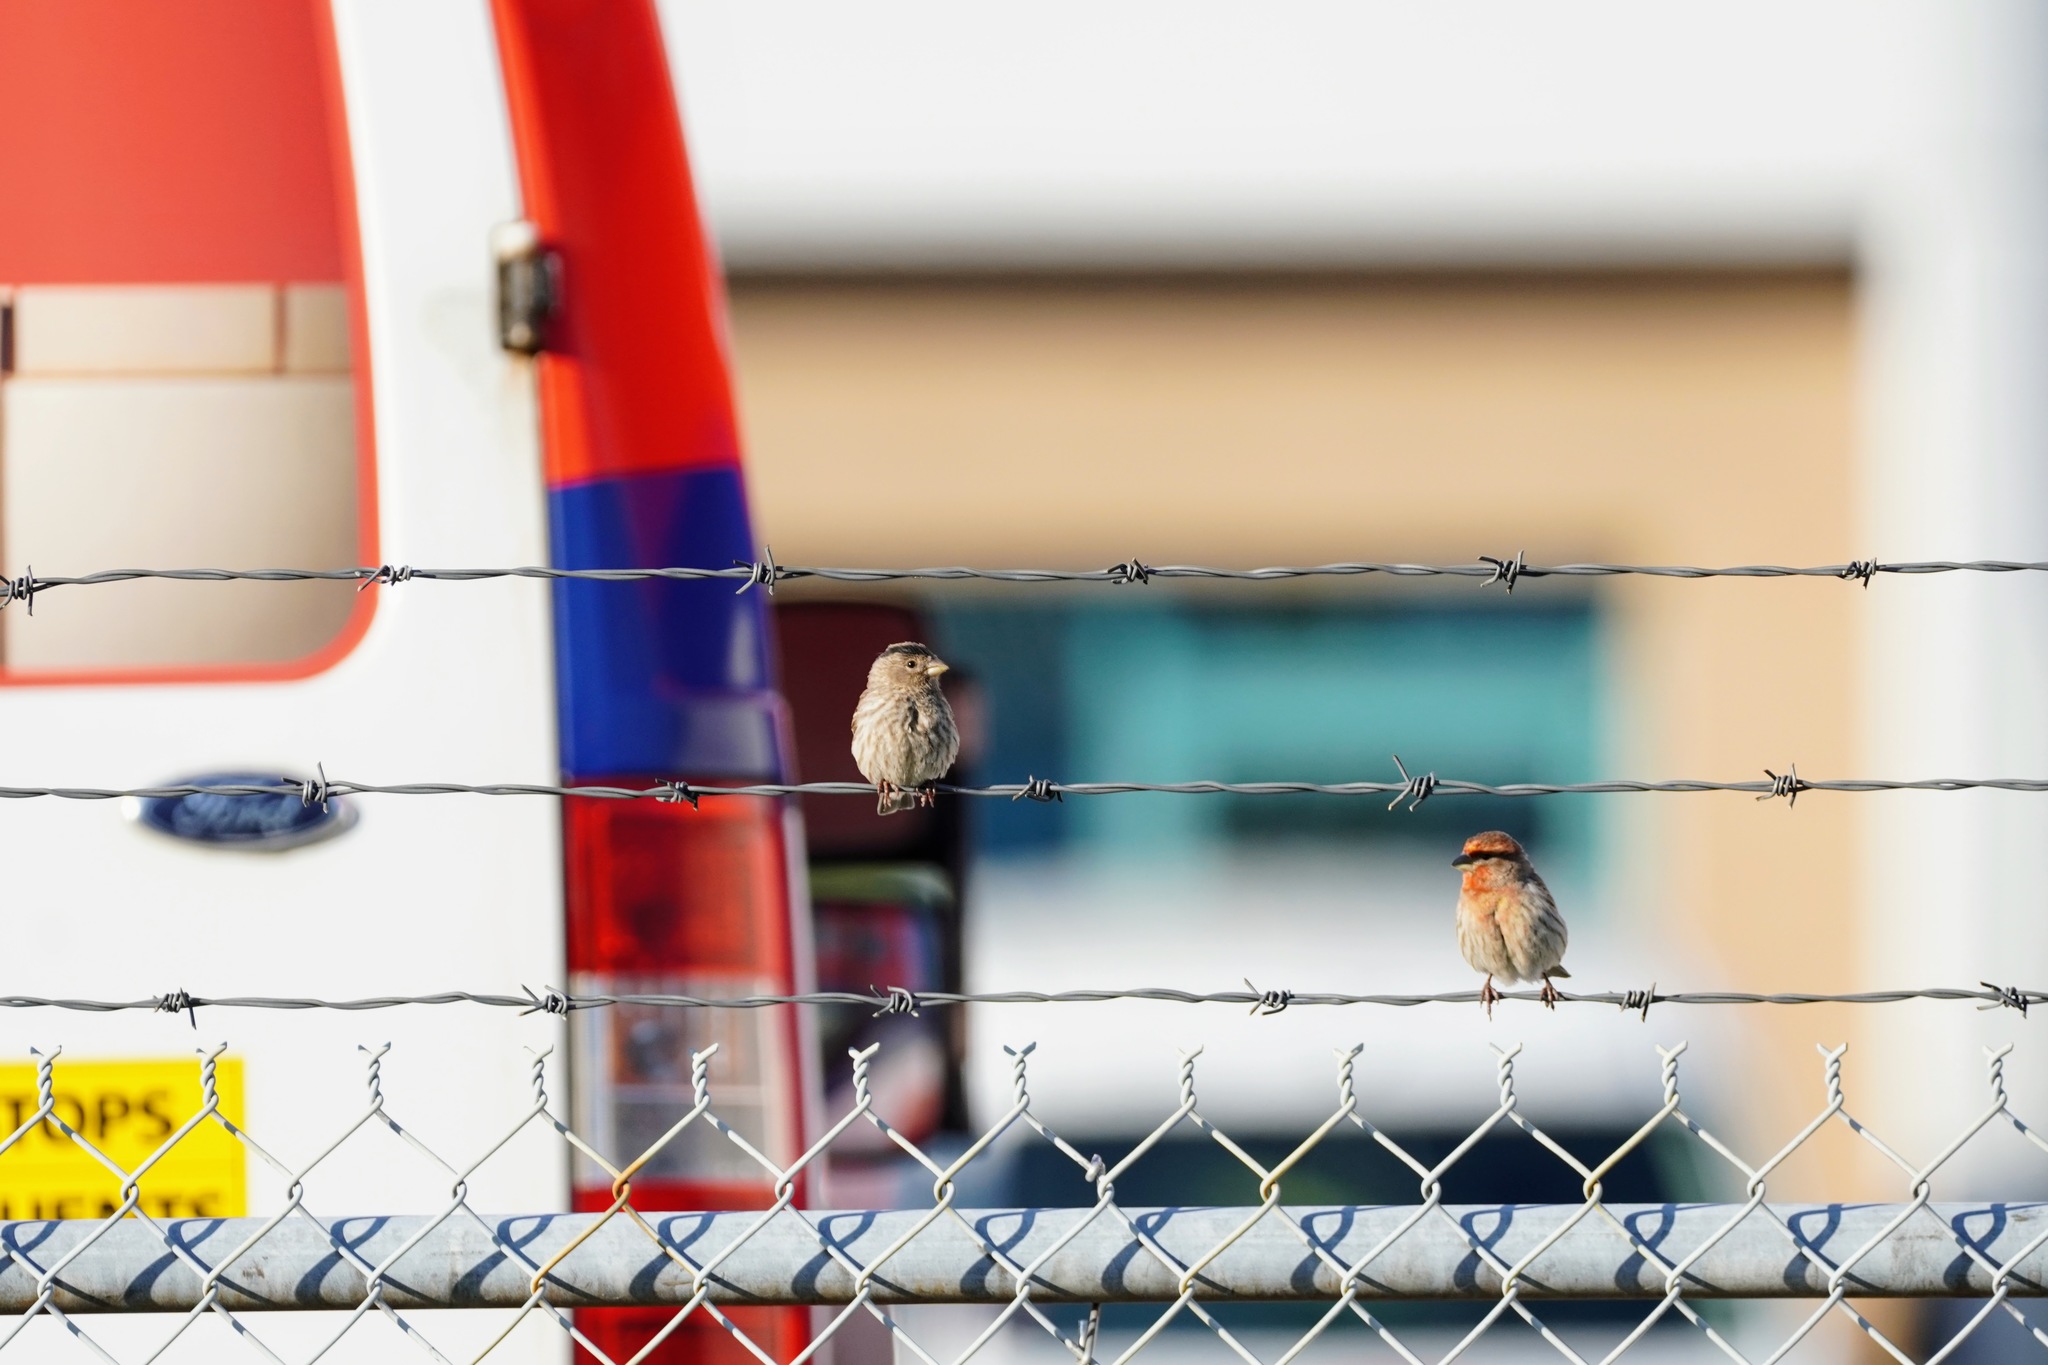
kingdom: Animalia
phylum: Chordata
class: Aves
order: Passeriformes
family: Fringillidae
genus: Haemorhous
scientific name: Haemorhous mexicanus
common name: House finch
